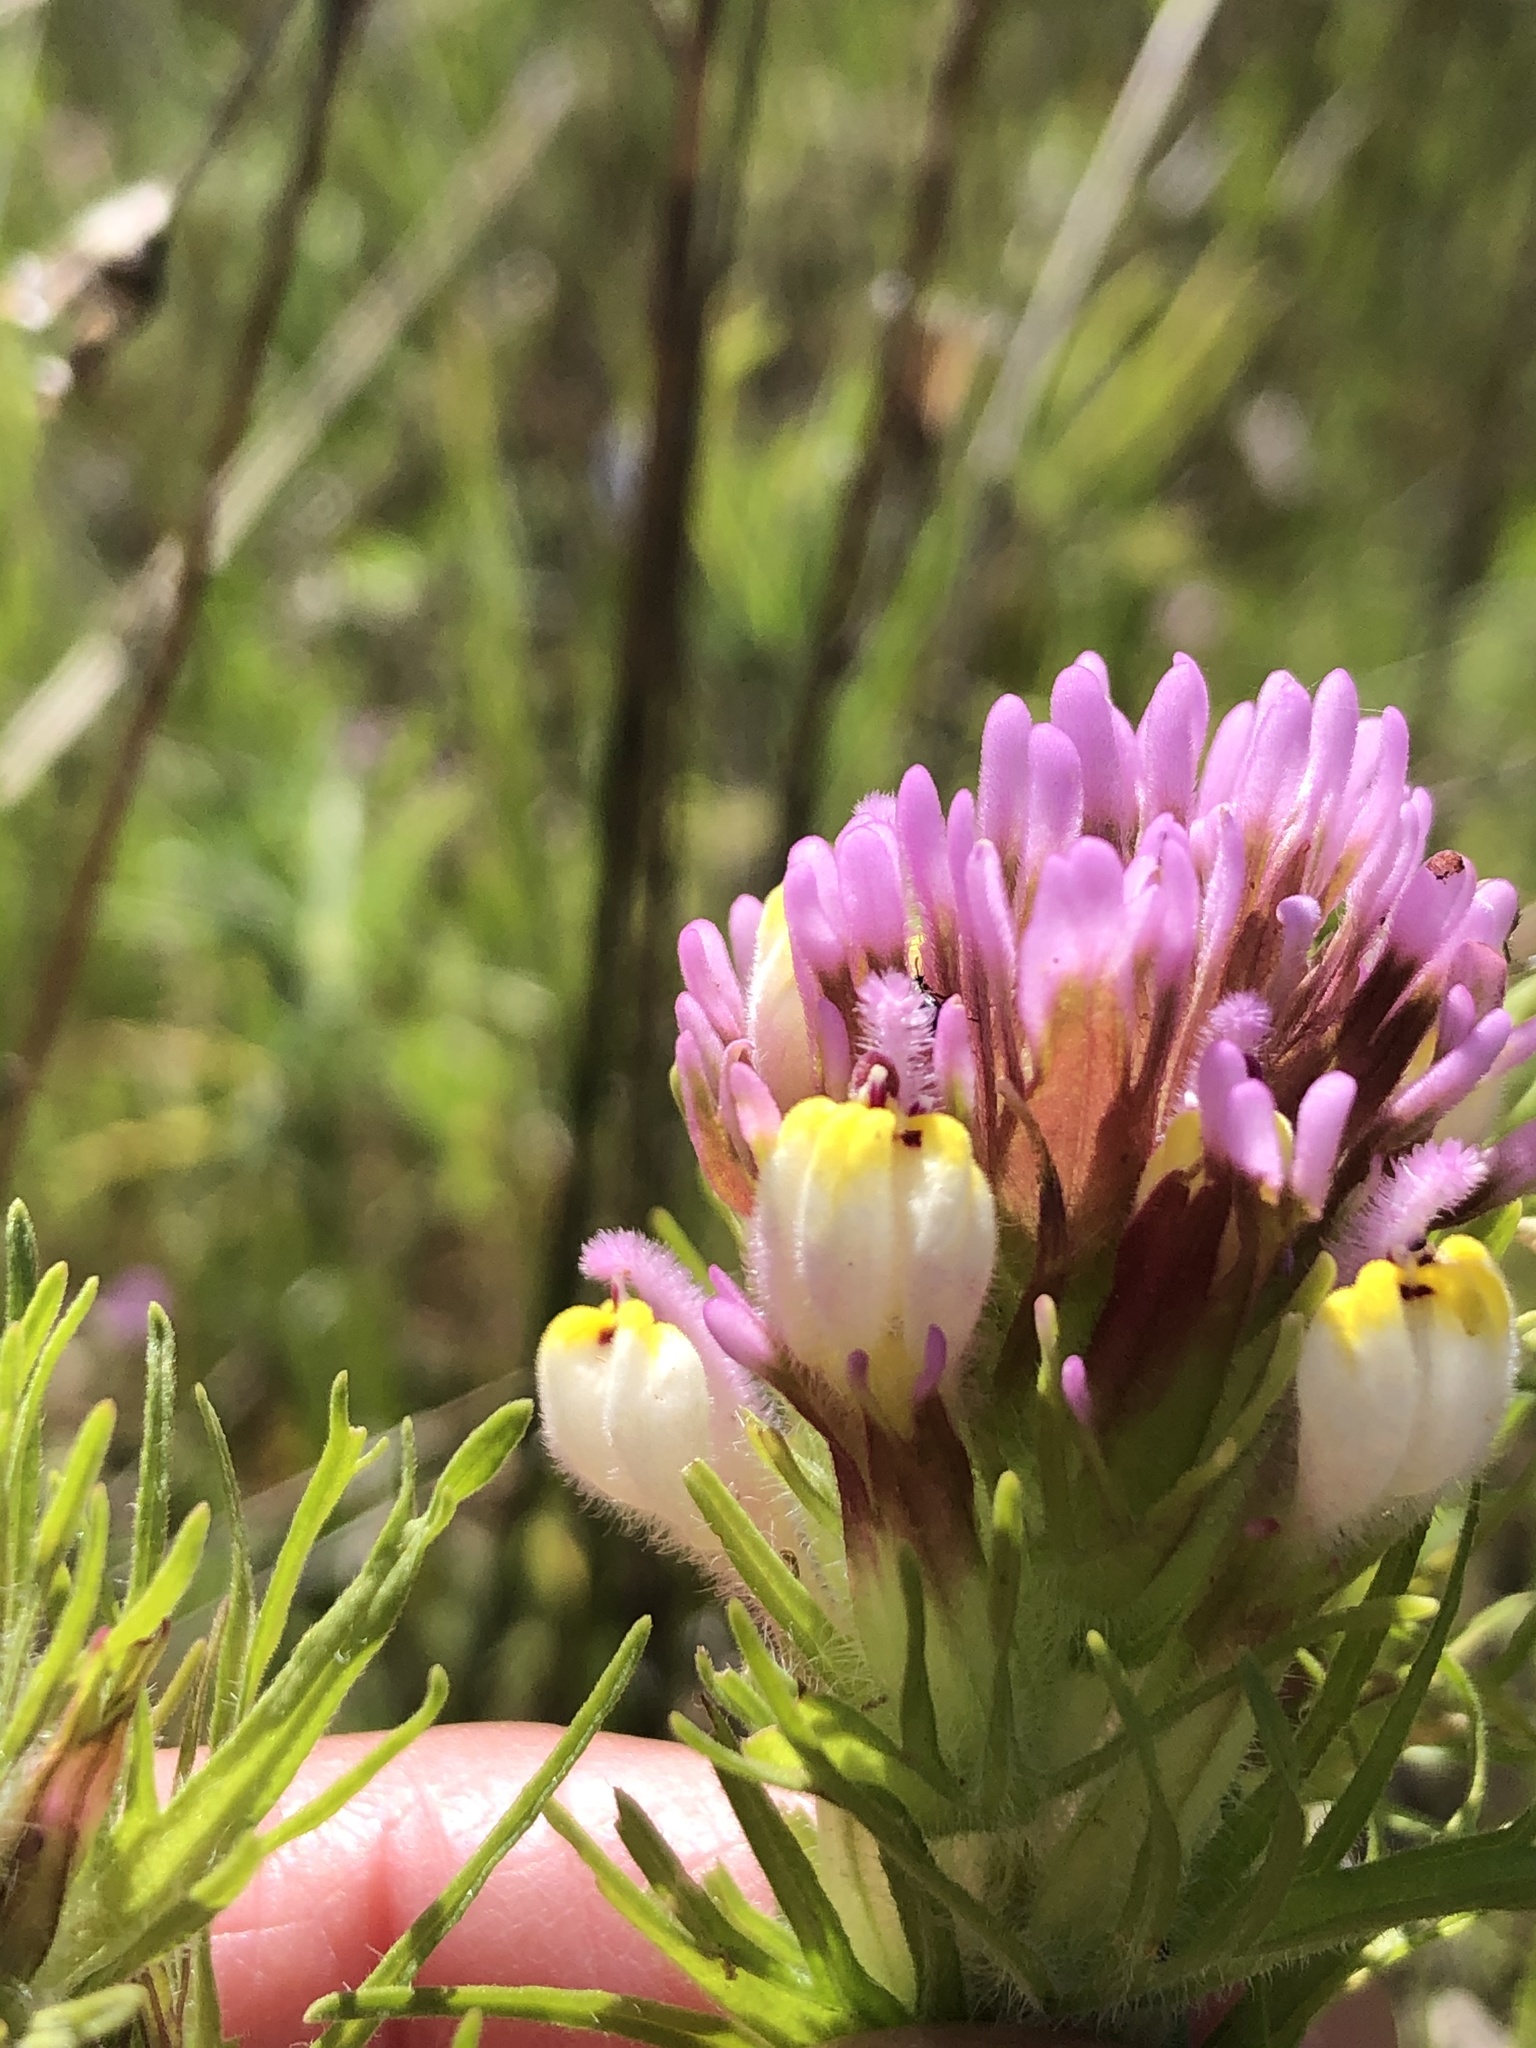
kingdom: Plantae
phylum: Tracheophyta
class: Magnoliopsida
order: Lamiales
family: Orobanchaceae
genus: Castilleja
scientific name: Castilleja exserta
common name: Purple owl-clover
